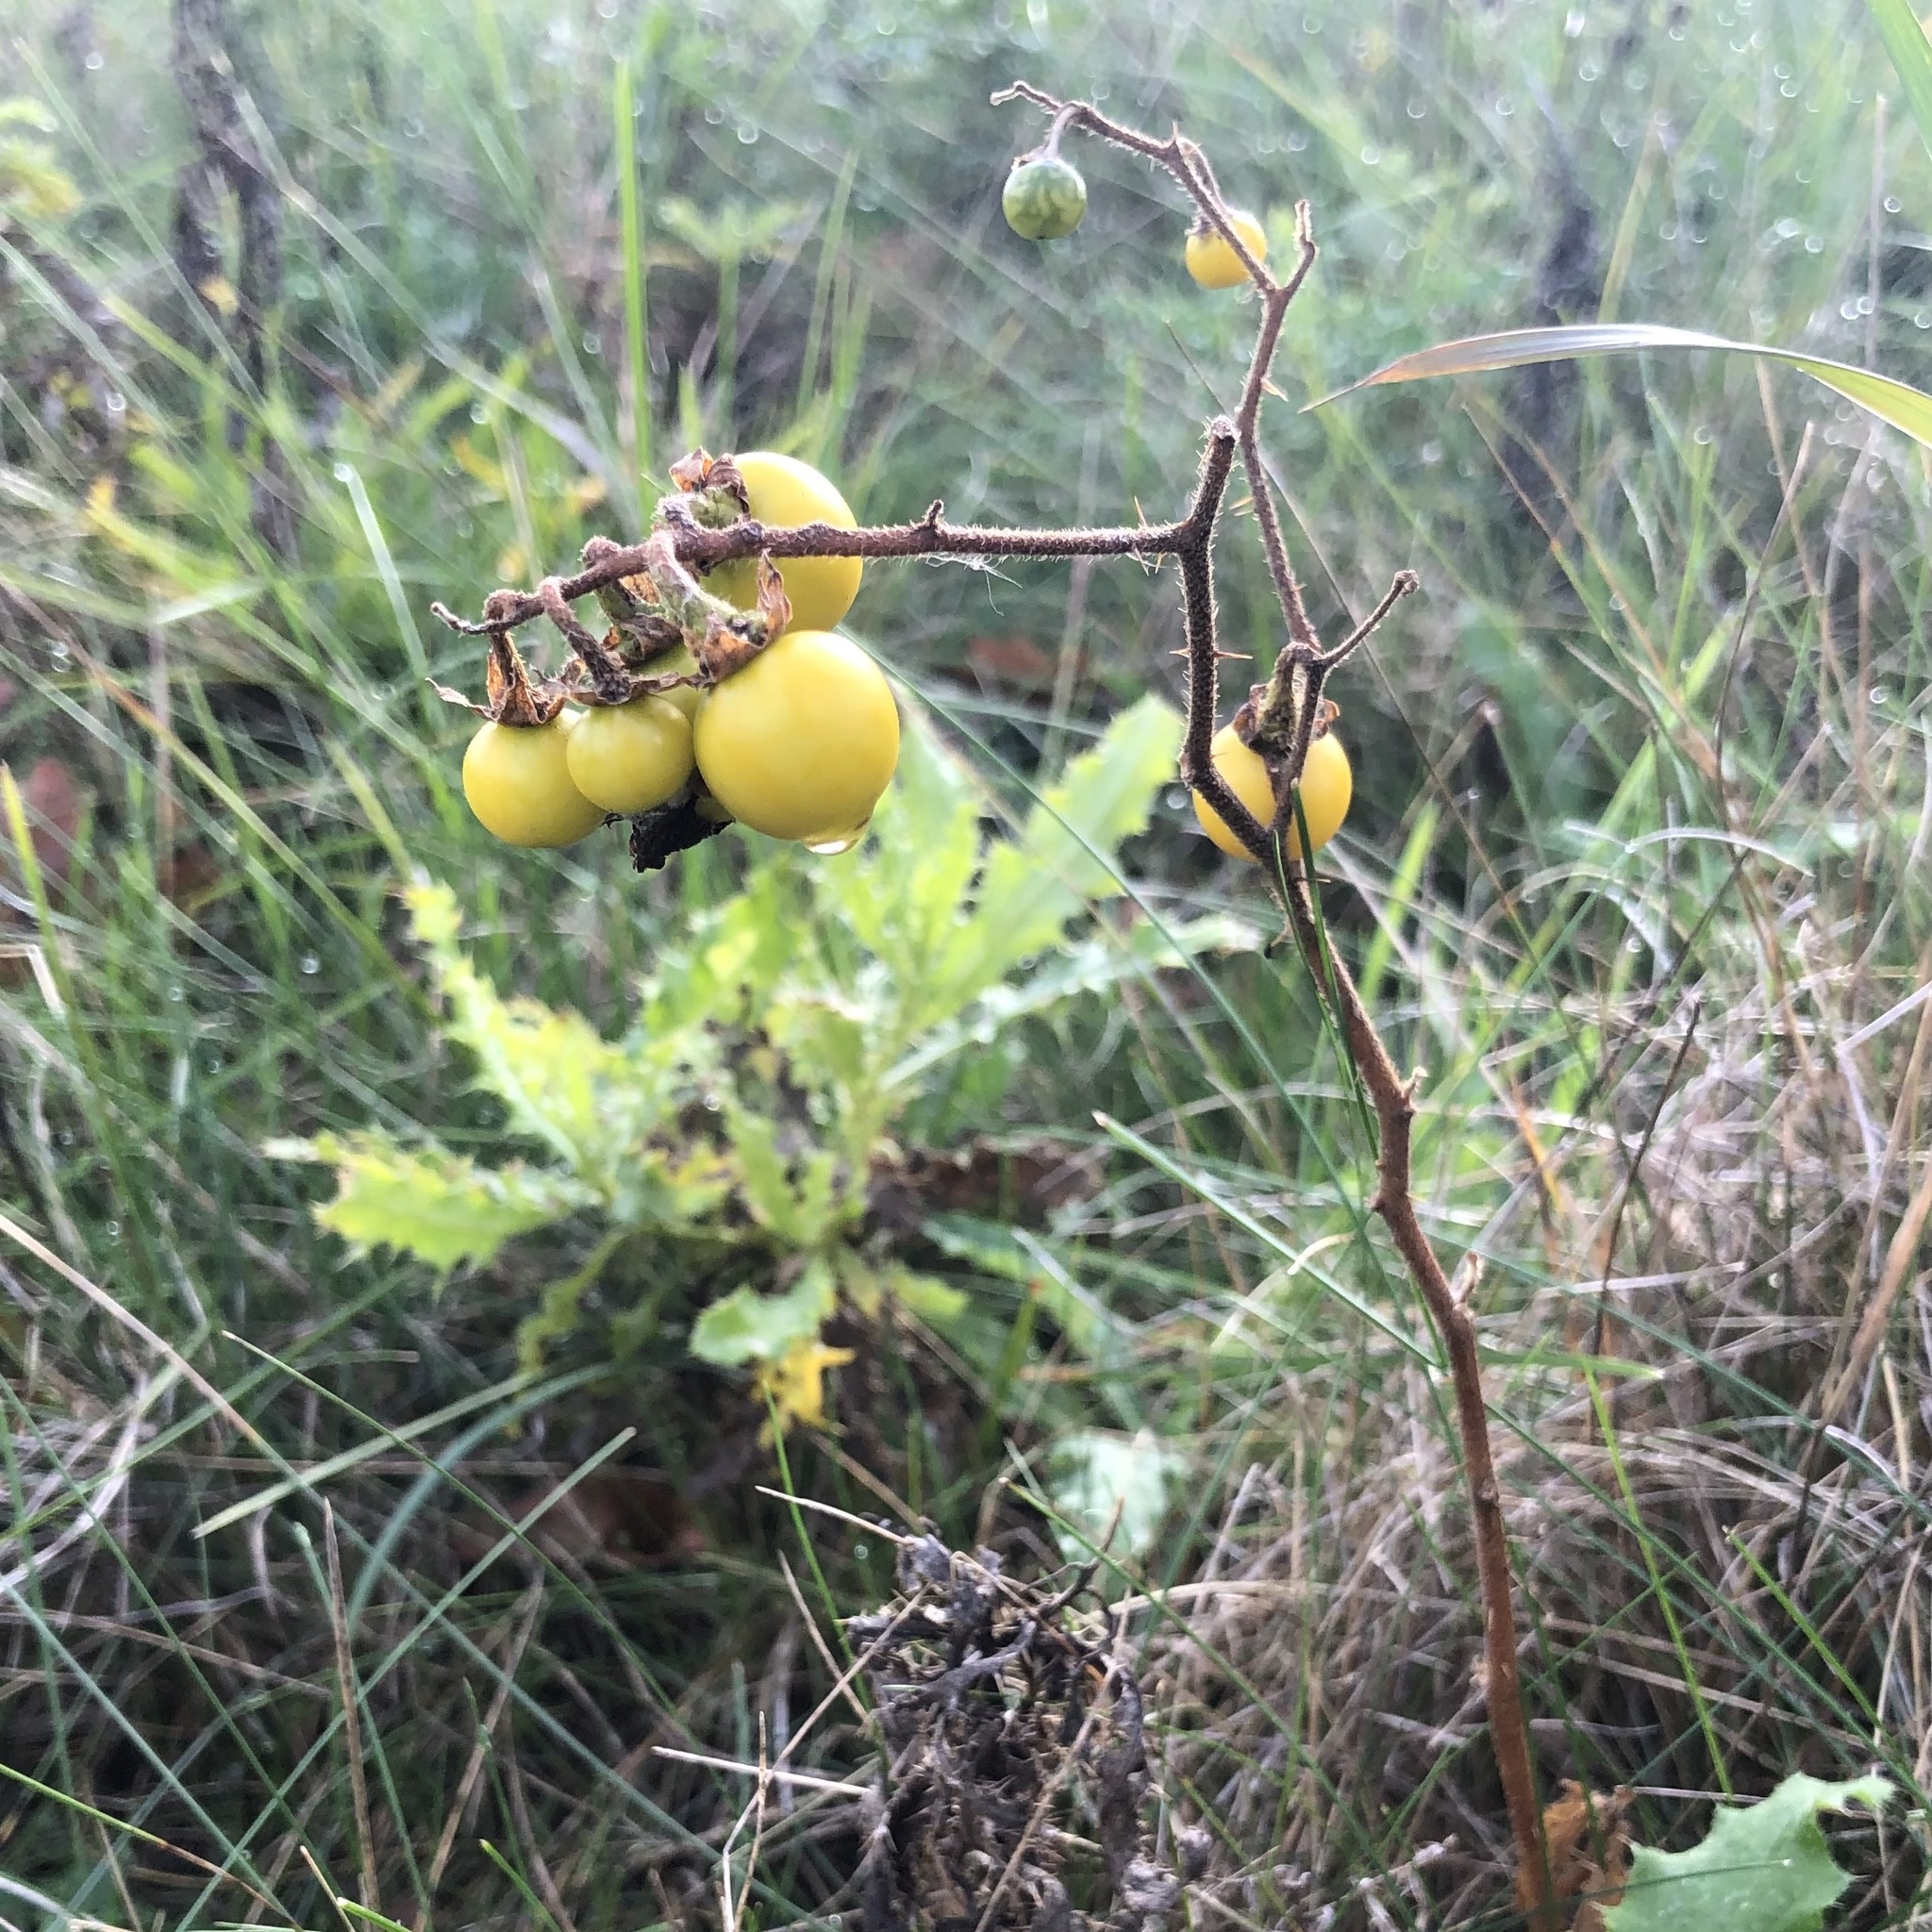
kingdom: Plantae
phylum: Tracheophyta
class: Magnoliopsida
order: Solanales
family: Solanaceae
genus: Solanum
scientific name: Solanum carolinense
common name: Horse-nettle
